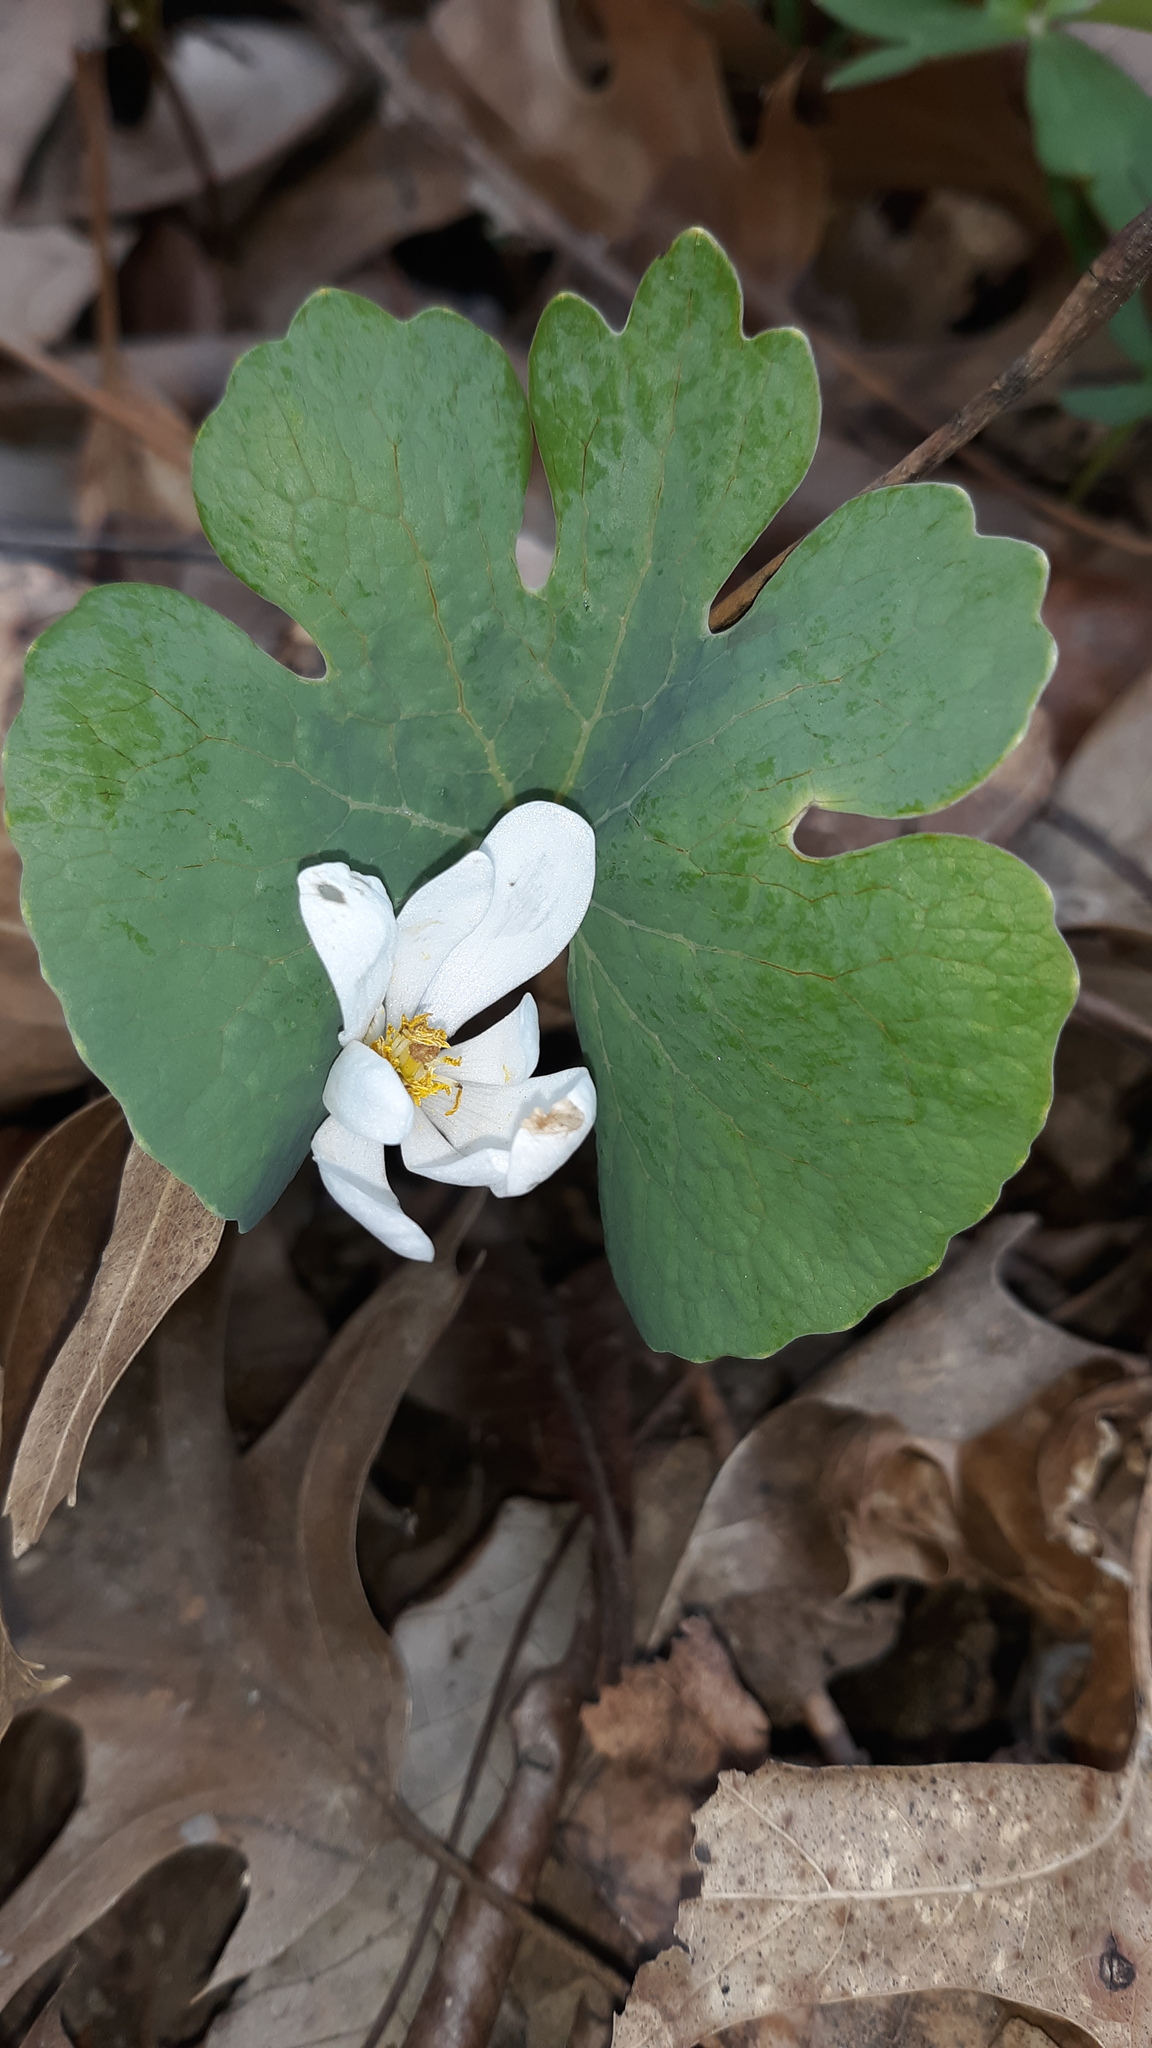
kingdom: Plantae
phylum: Tracheophyta
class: Magnoliopsida
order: Ranunculales
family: Papaveraceae
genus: Sanguinaria
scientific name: Sanguinaria canadensis
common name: Bloodroot
